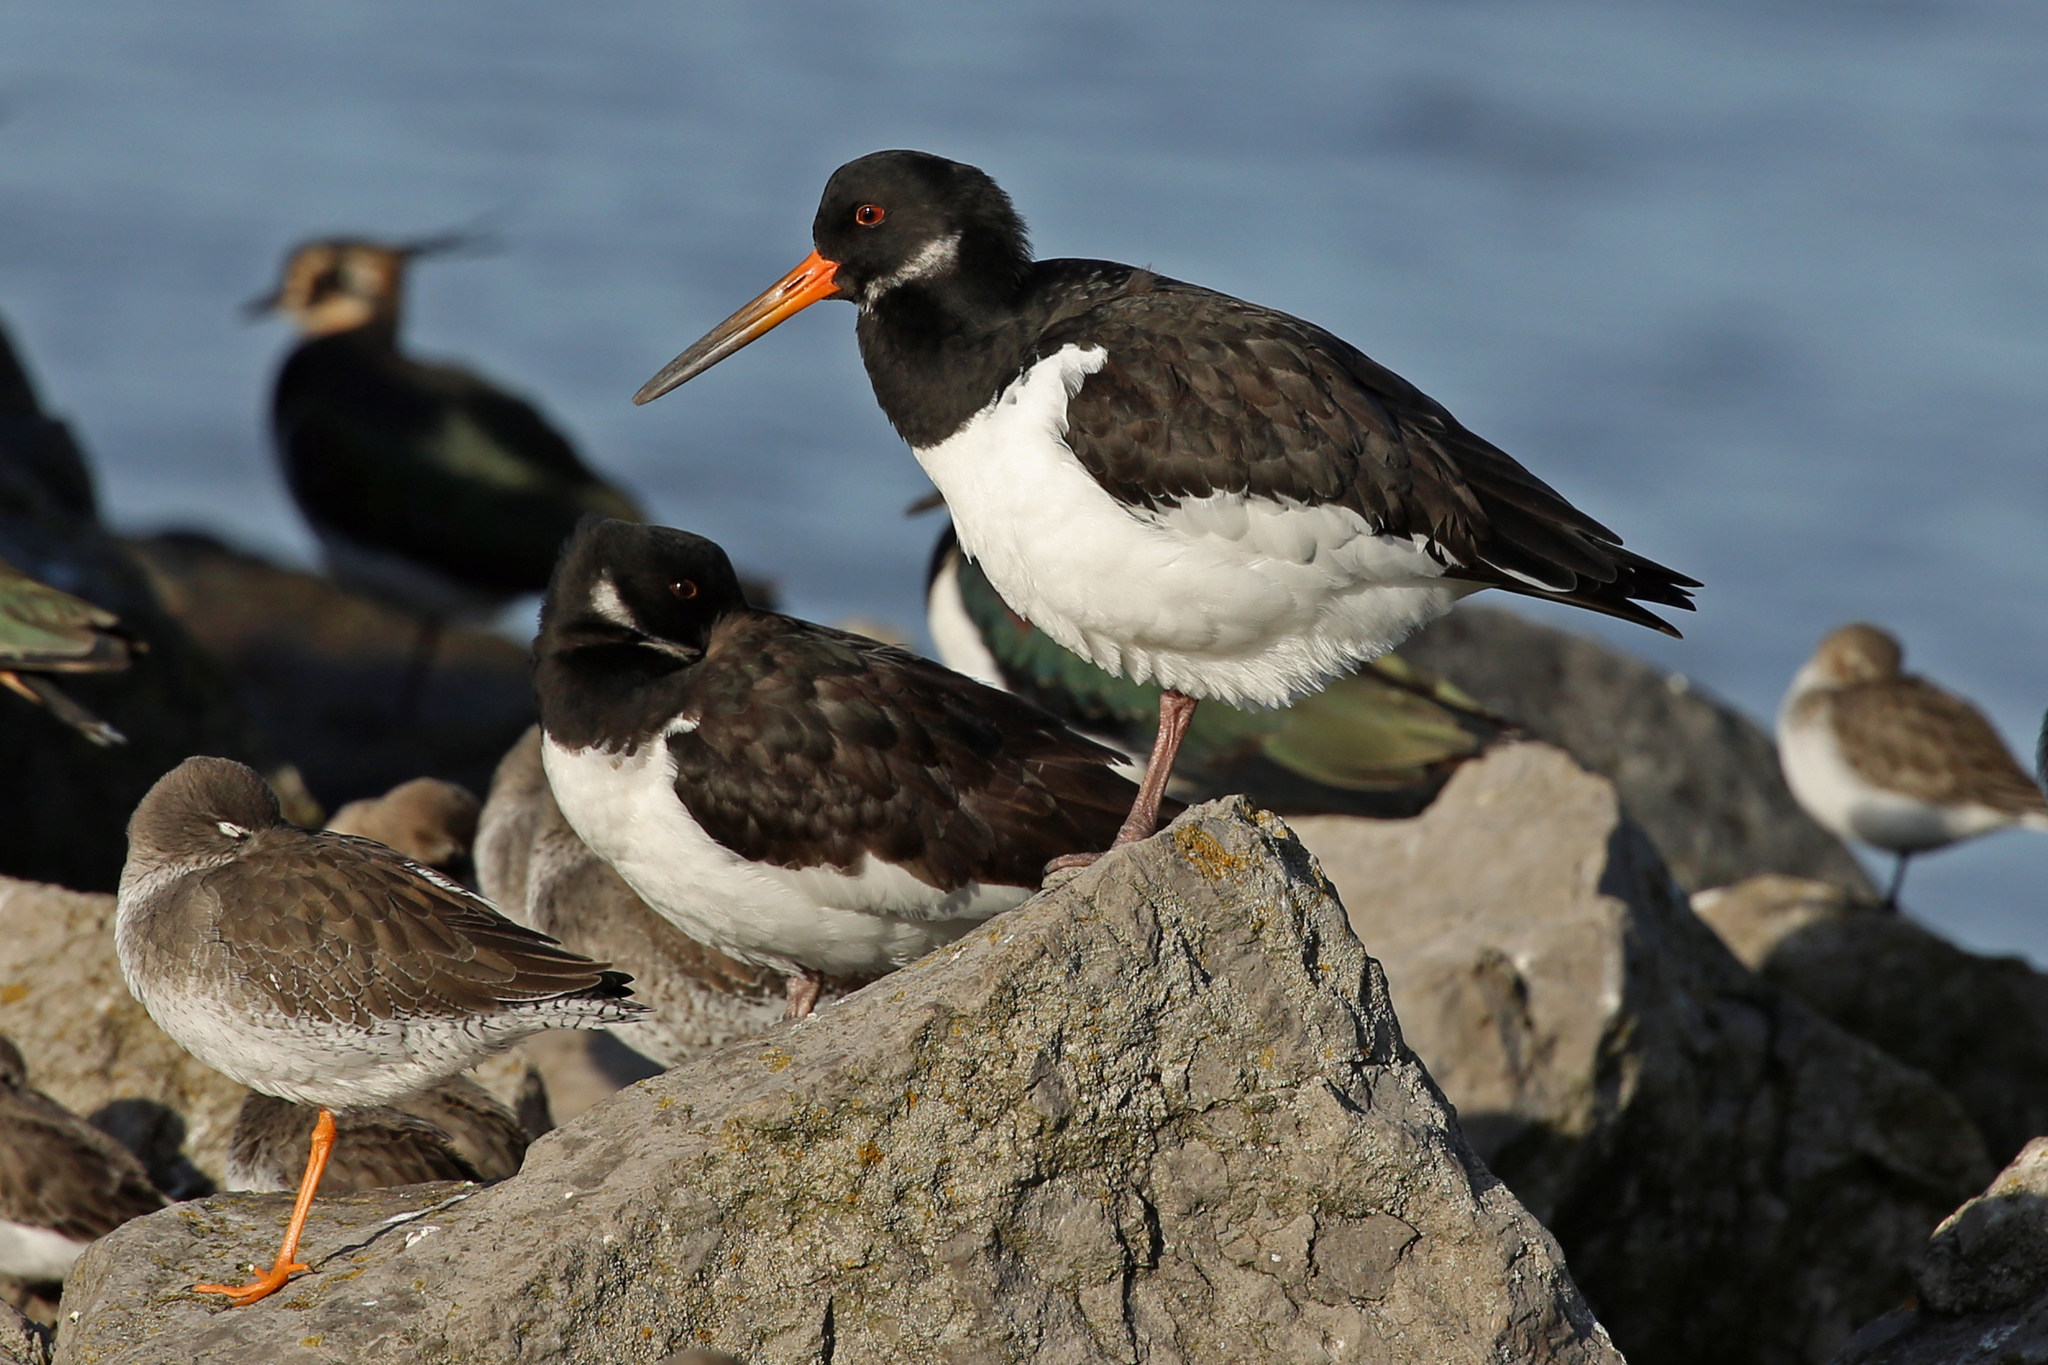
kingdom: Animalia
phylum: Chordata
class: Aves
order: Charadriiformes
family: Haematopodidae
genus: Haematopus
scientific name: Haematopus ostralegus
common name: Eurasian oystercatcher
